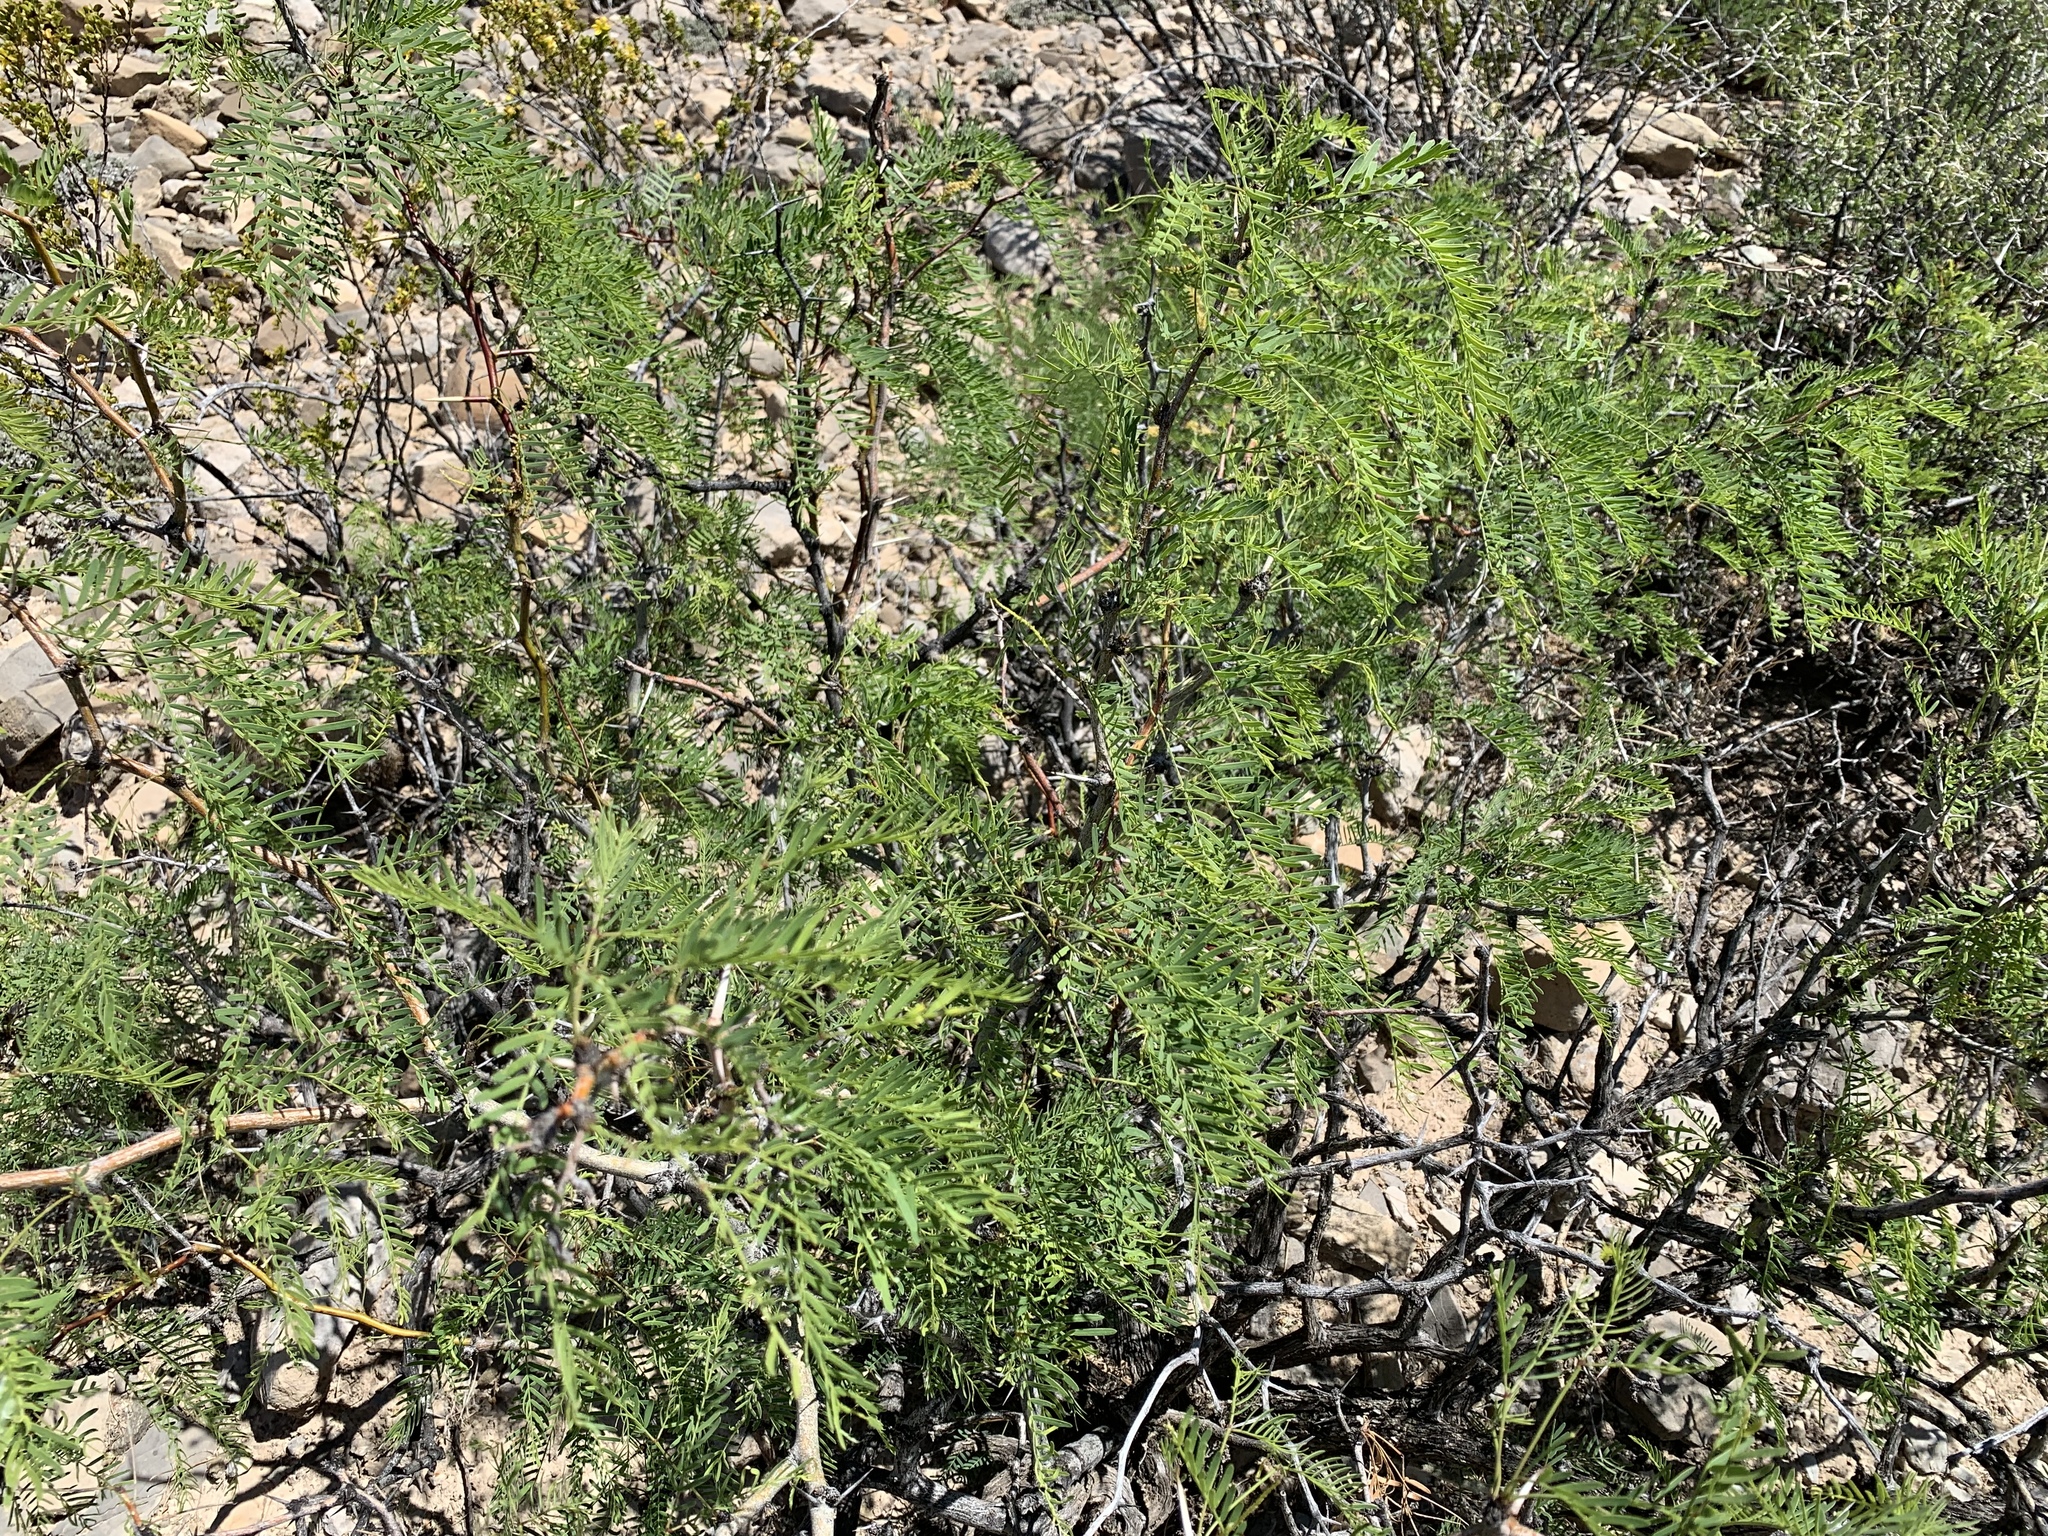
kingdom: Plantae
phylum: Tracheophyta
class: Magnoliopsida
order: Fabales
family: Fabaceae
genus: Prosopis
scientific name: Prosopis glandulosa
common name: Honey mesquite
